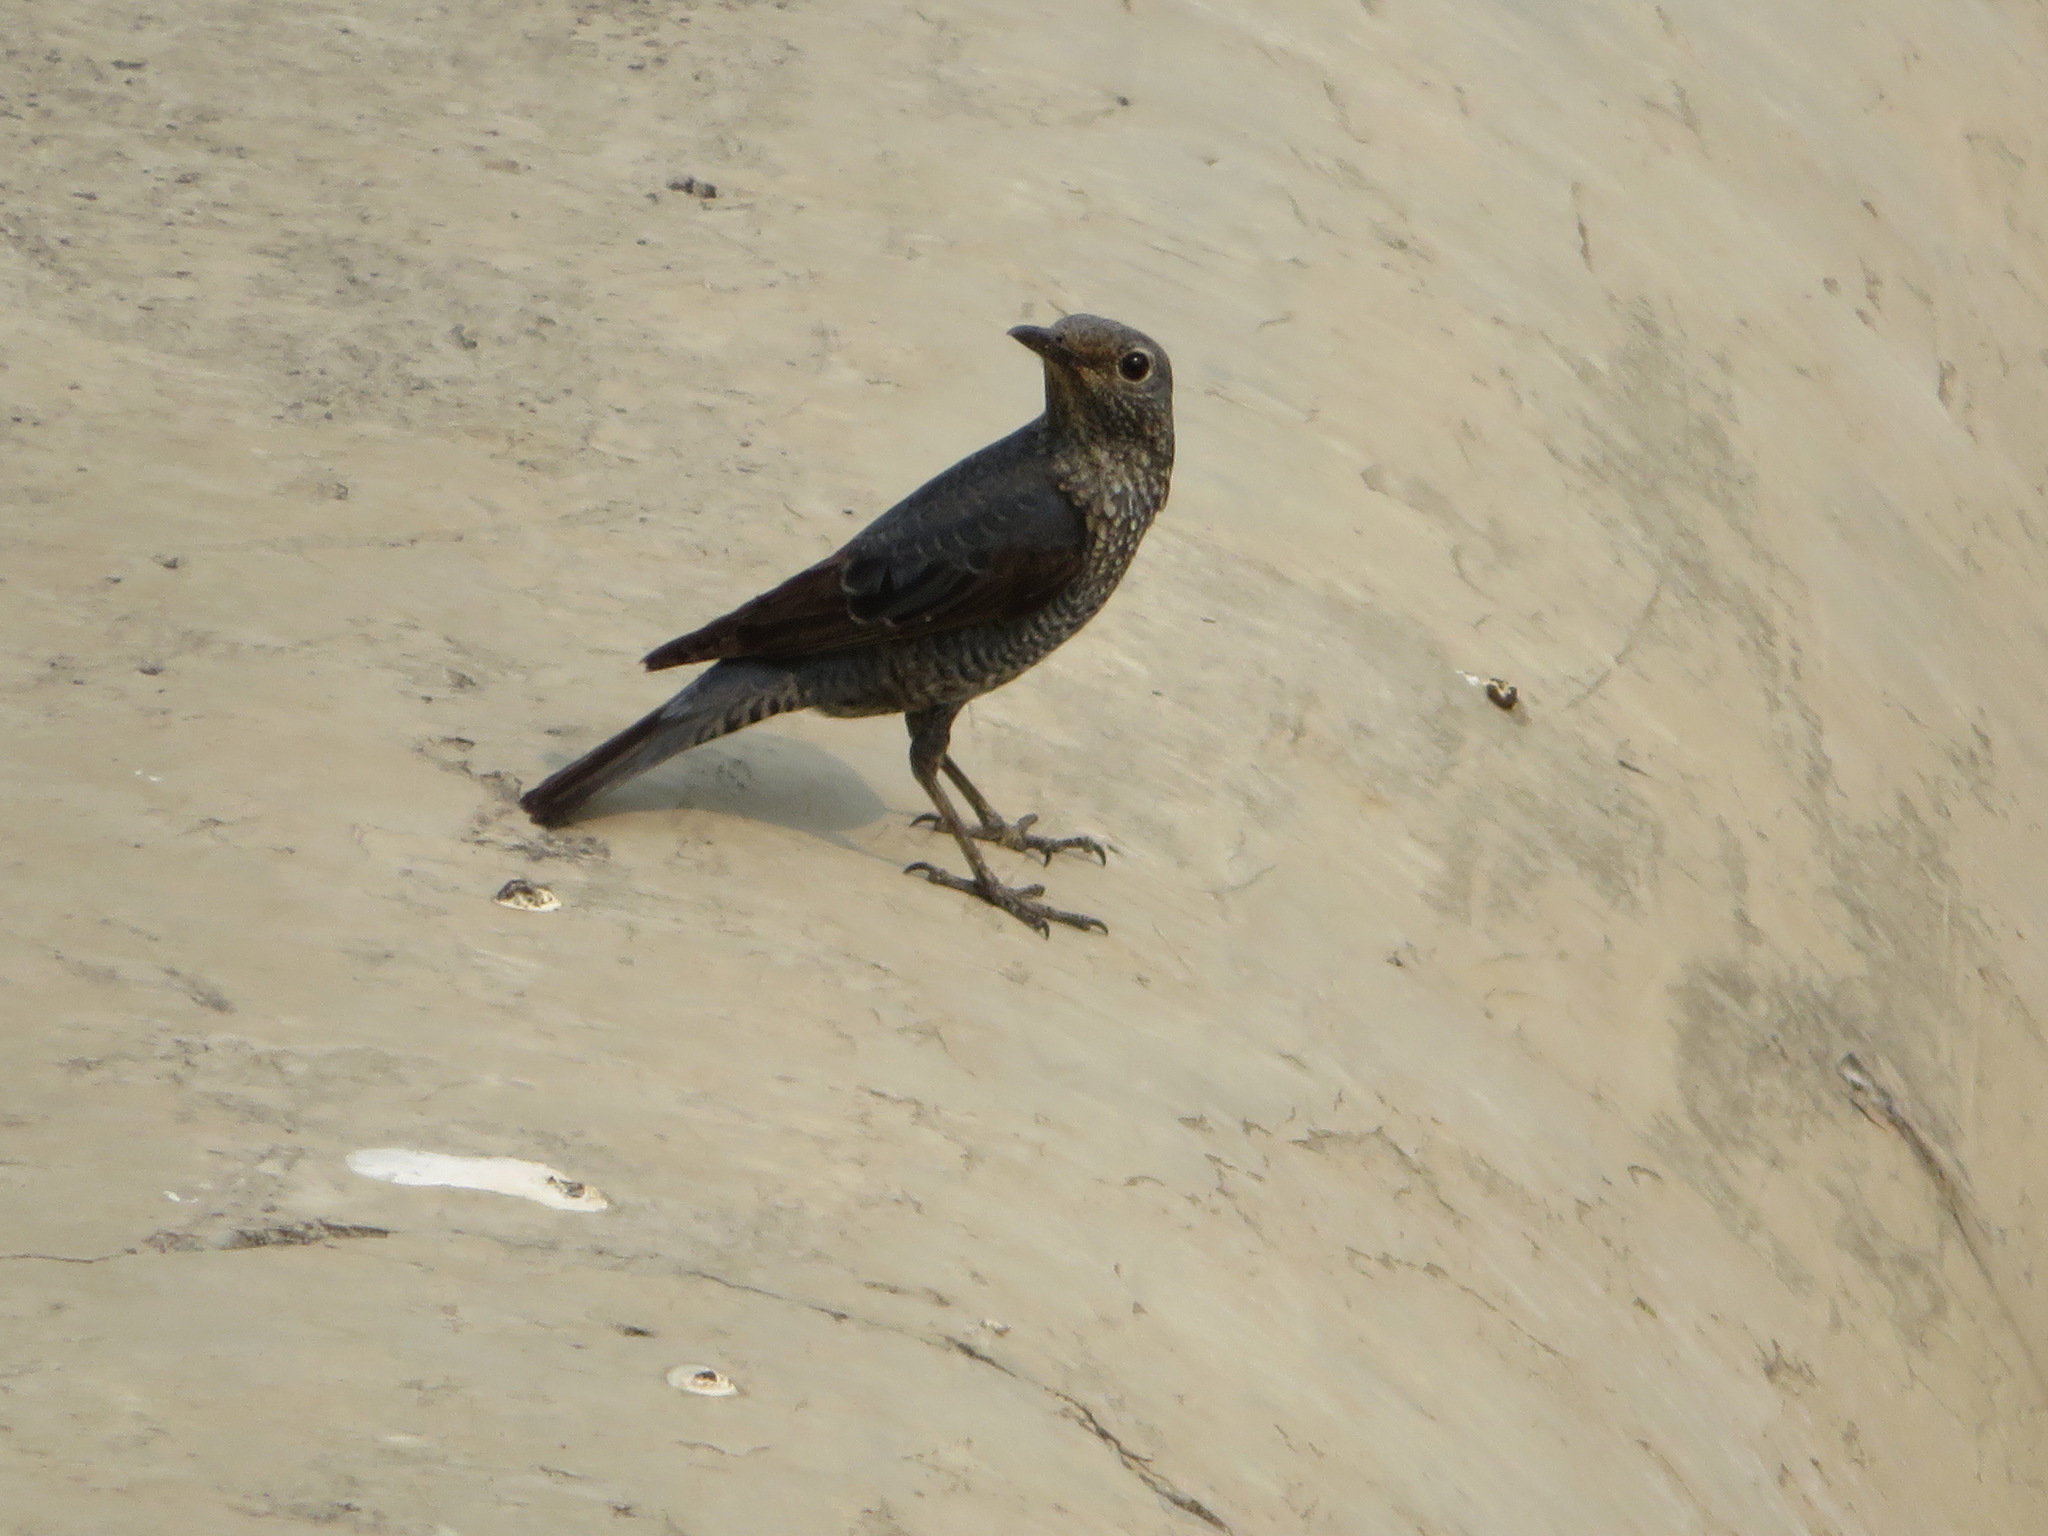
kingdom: Animalia
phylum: Chordata
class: Aves
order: Passeriformes
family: Muscicapidae
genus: Monticola
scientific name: Monticola solitarius
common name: Blue rock thrush
